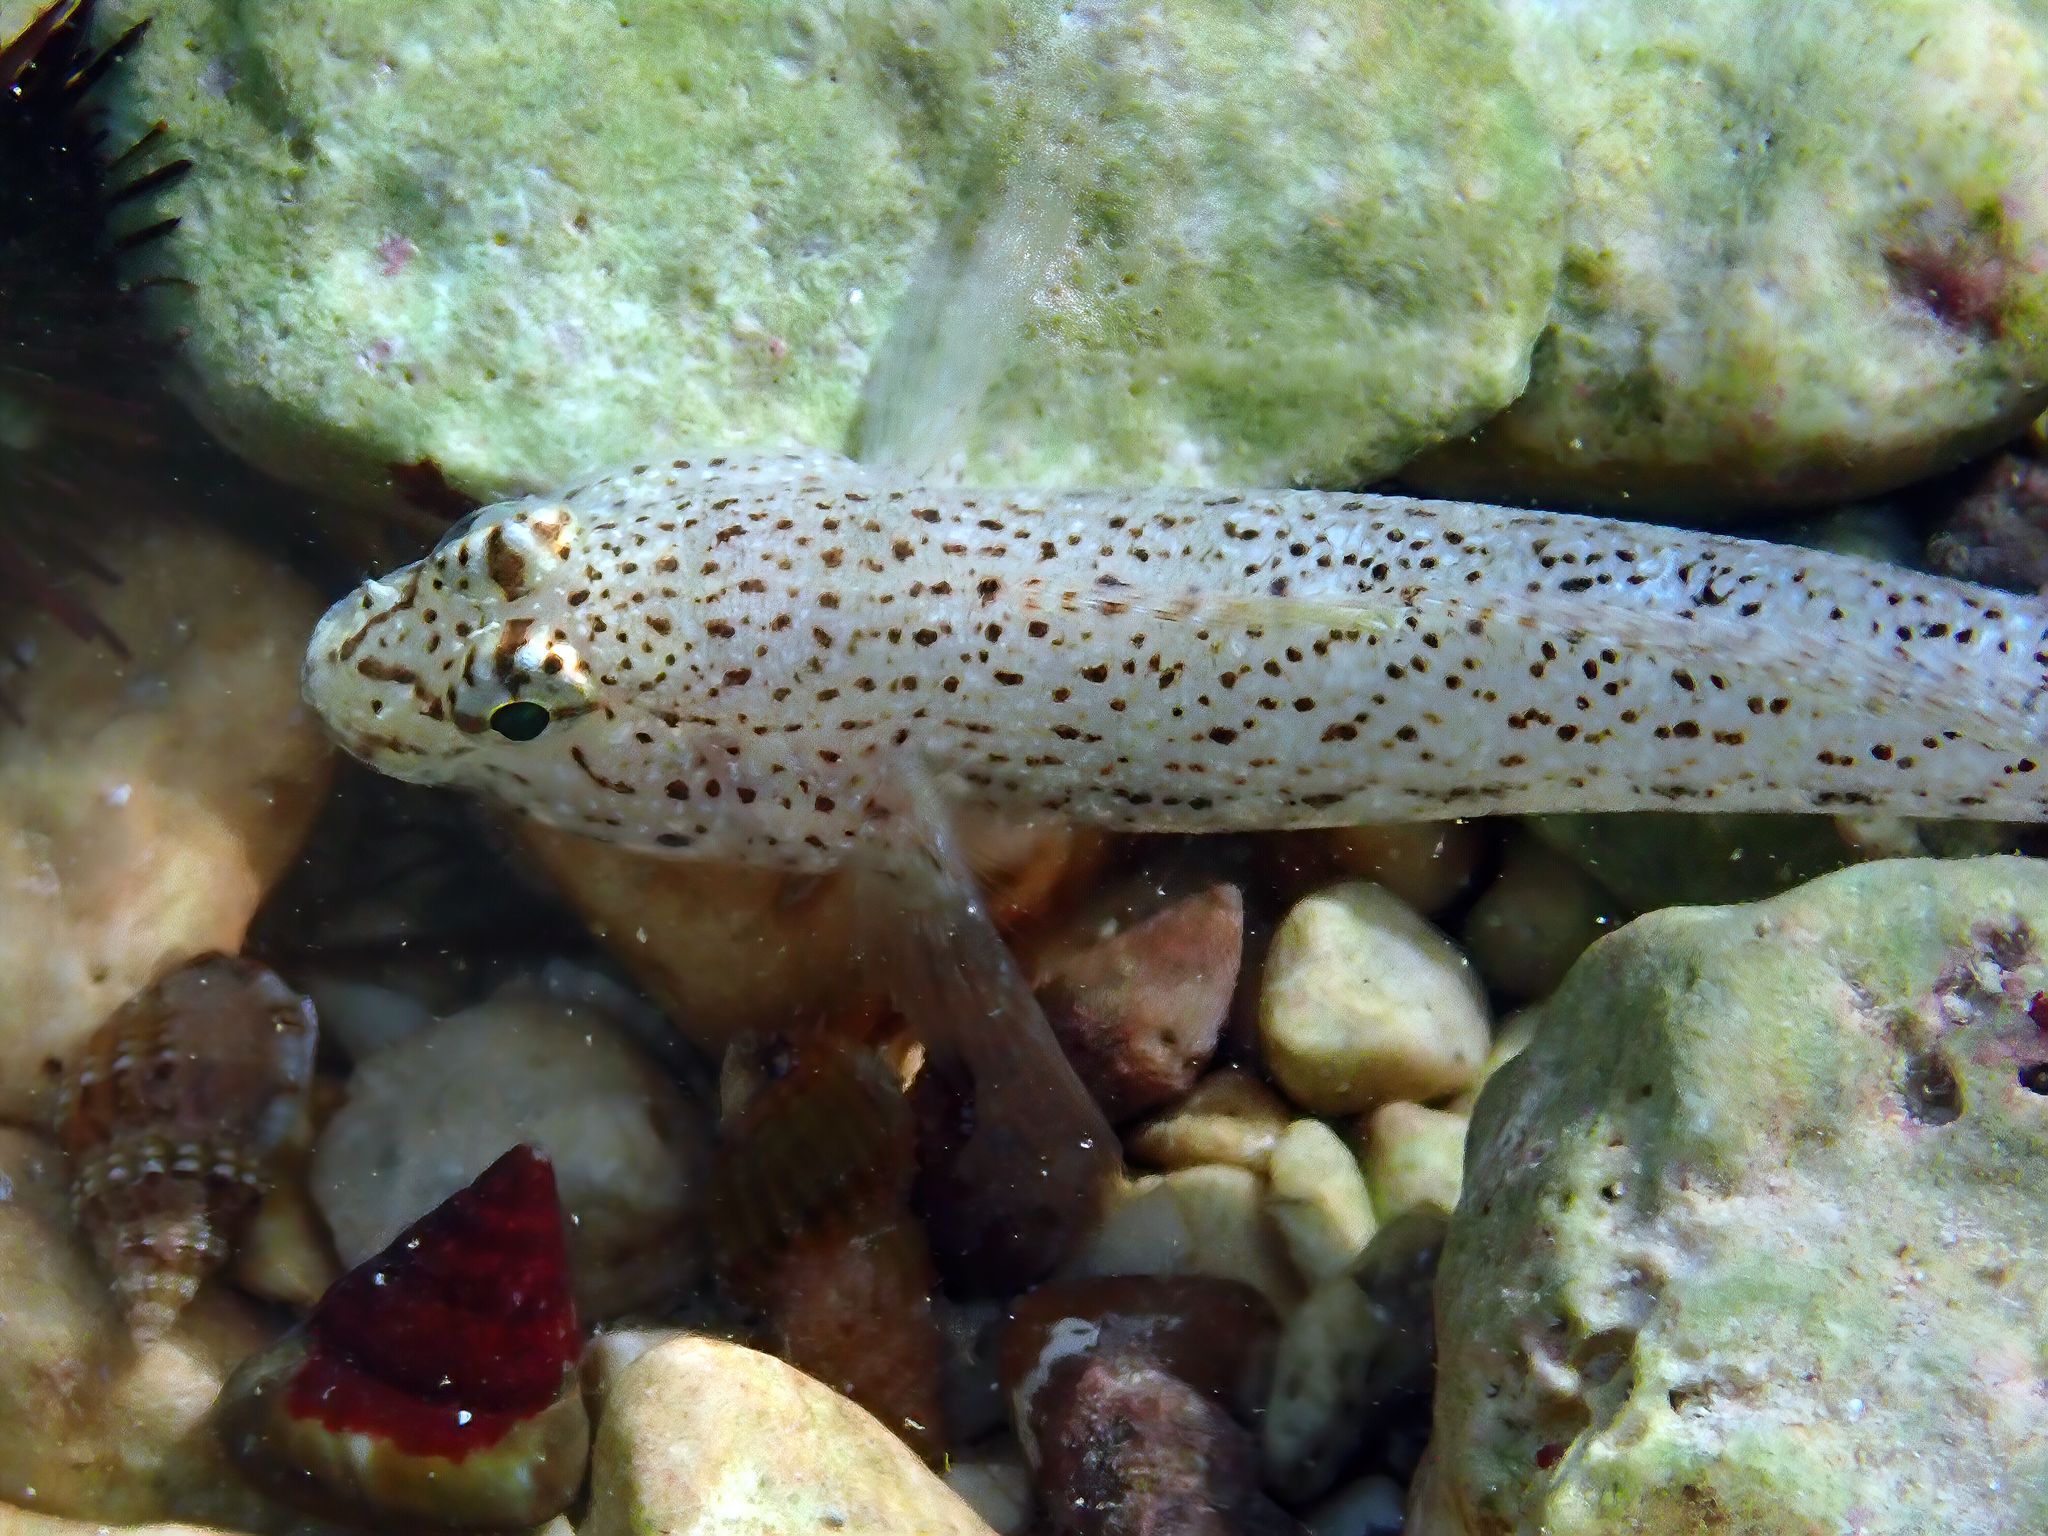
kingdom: Animalia
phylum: Chordata
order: Perciformes
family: Gobiidae
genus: Gobius
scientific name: Gobius incognitus
